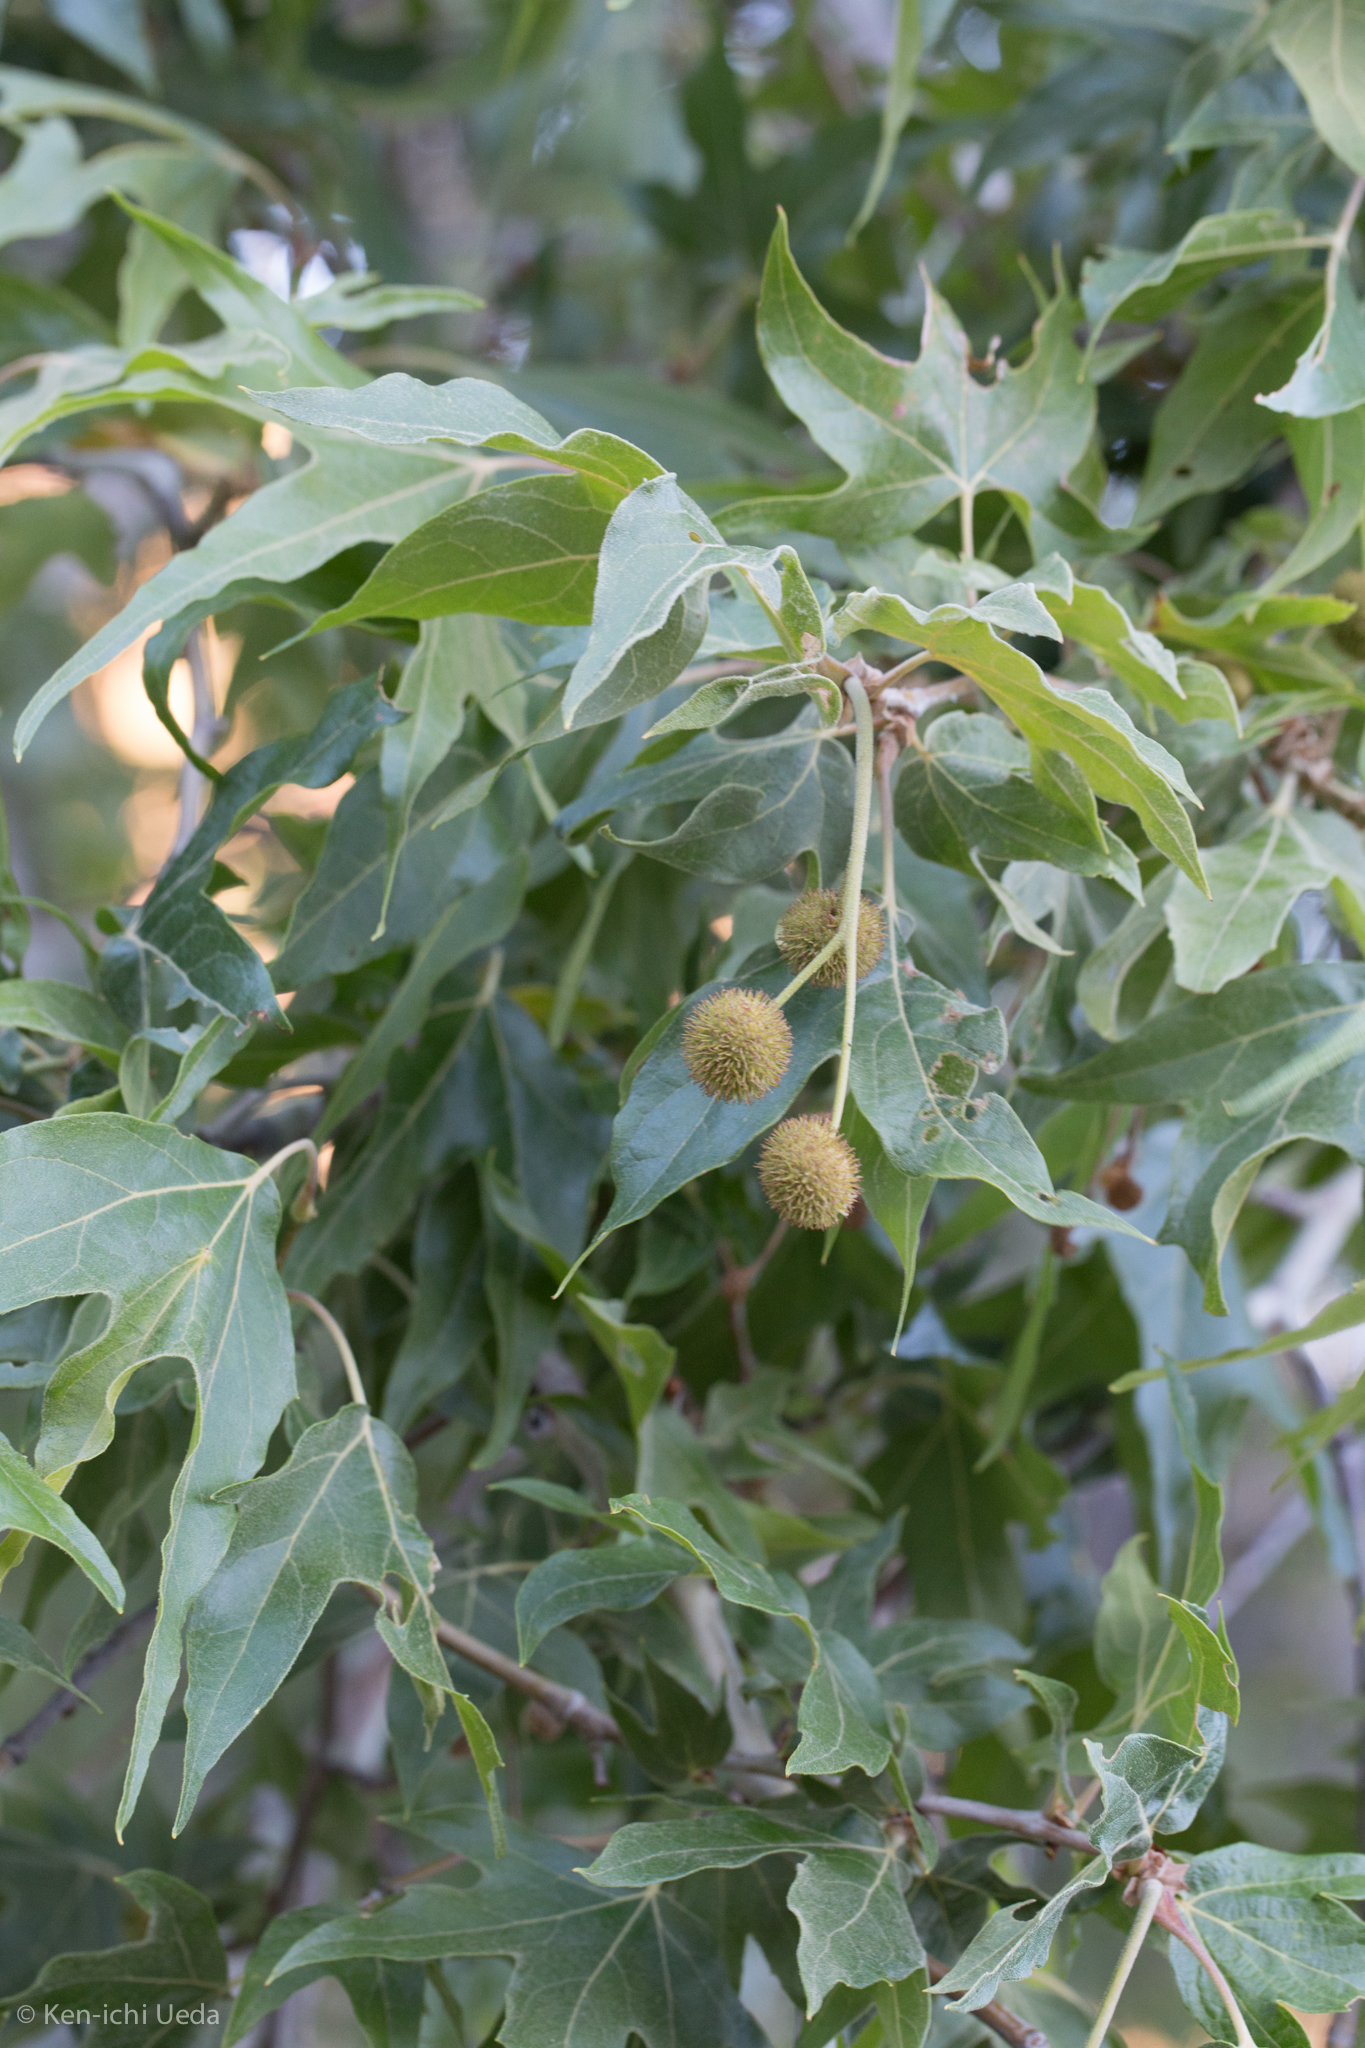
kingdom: Plantae
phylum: Tracheophyta
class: Magnoliopsida
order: Proteales
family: Platanaceae
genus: Platanus
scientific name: Platanus wrightii
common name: Arizona sycamore
